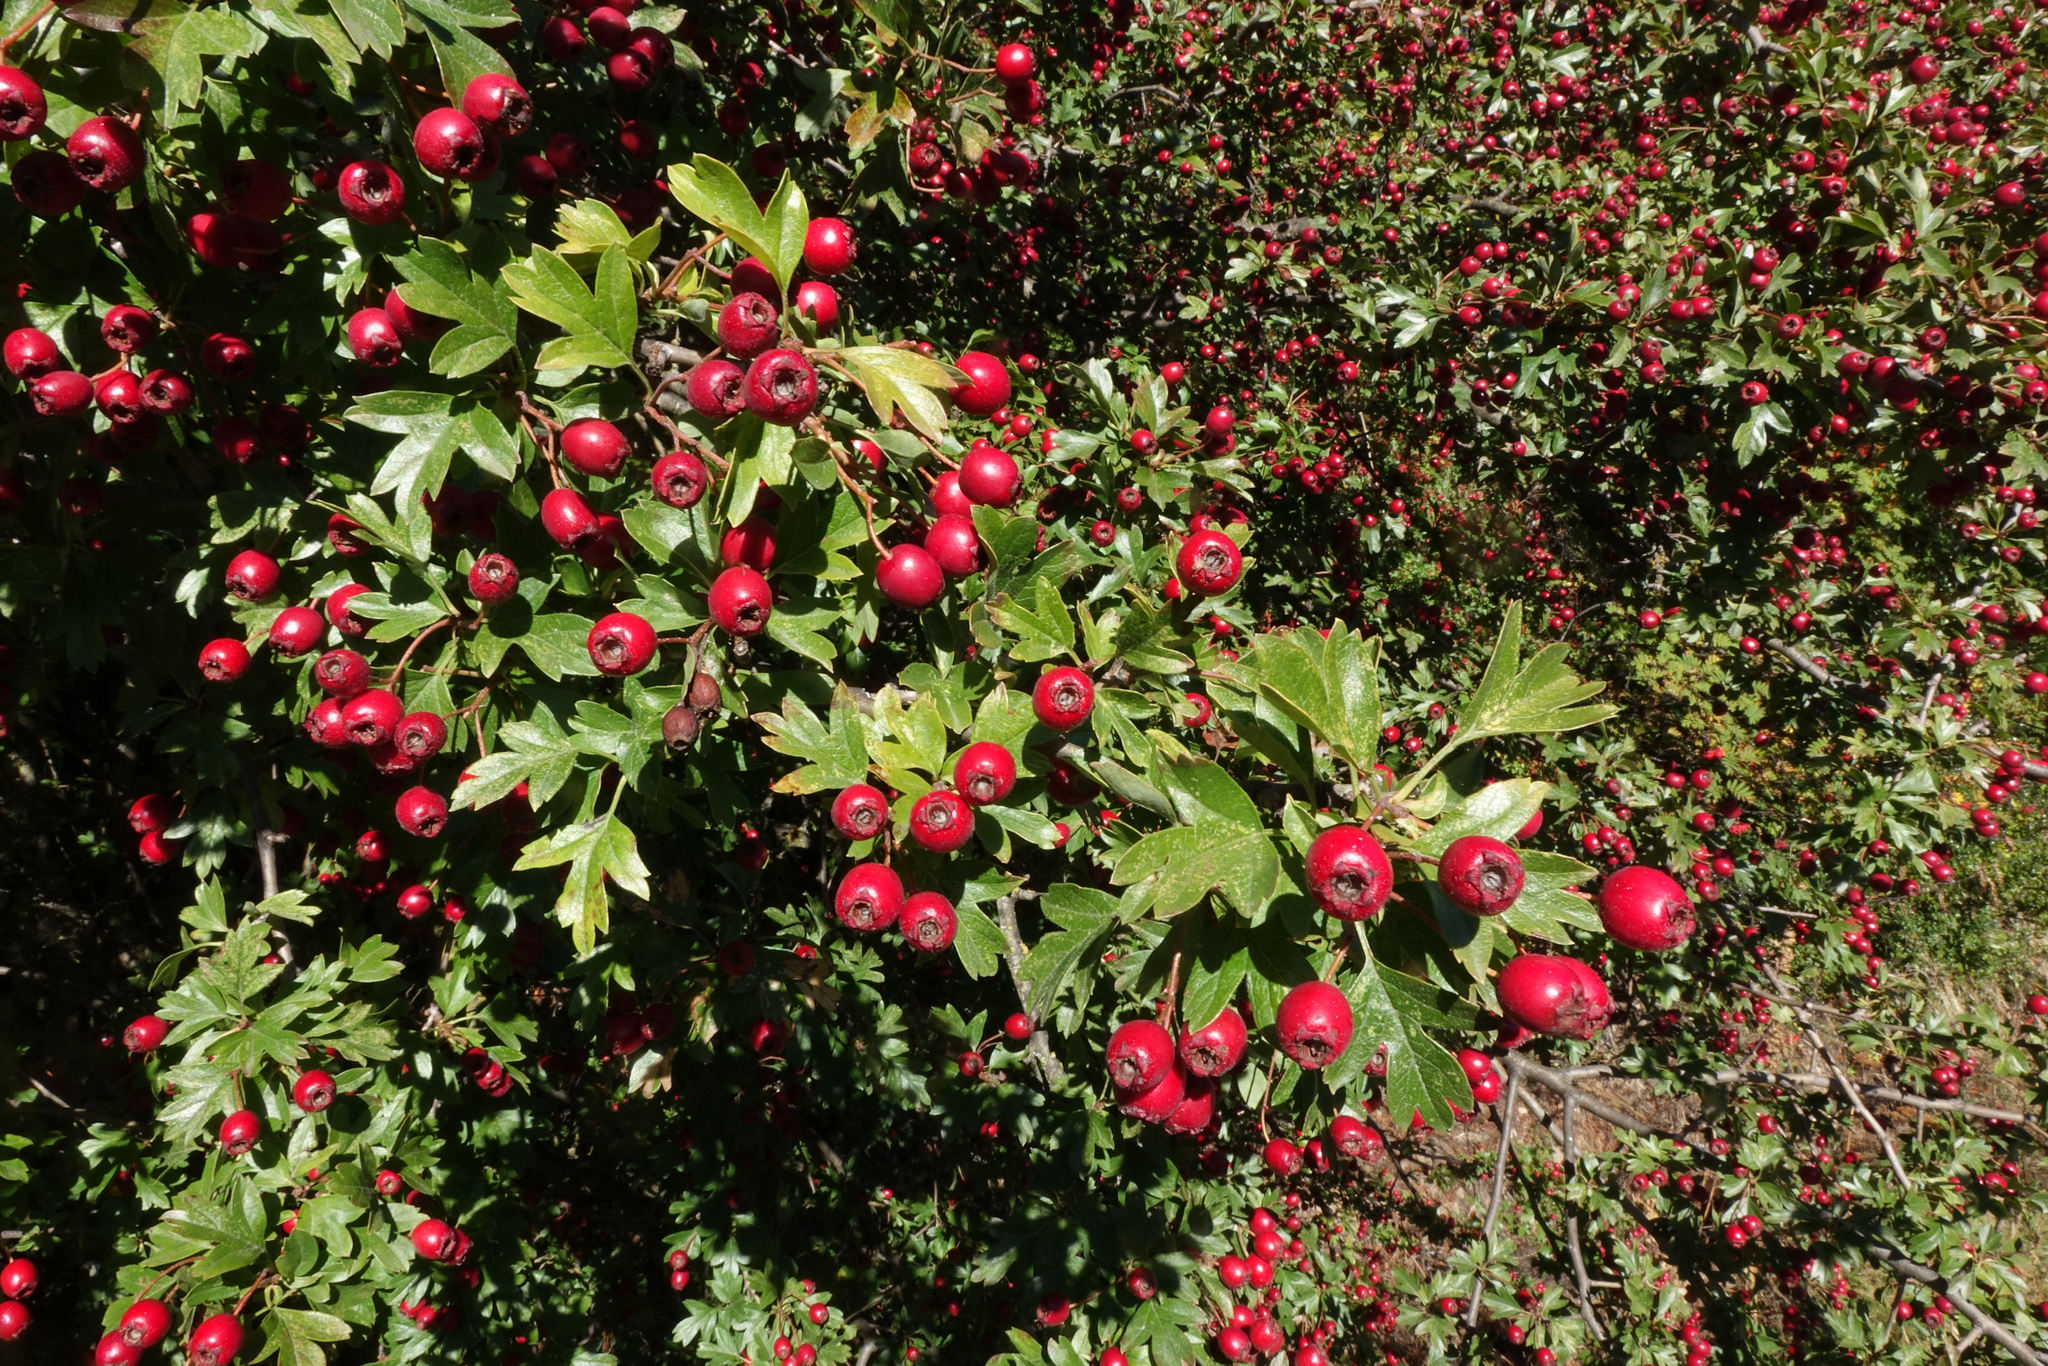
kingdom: Plantae
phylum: Tracheophyta
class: Magnoliopsida
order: Rosales
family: Rosaceae
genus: Crataegus
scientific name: Crataegus monogyna
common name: Hawthorn
